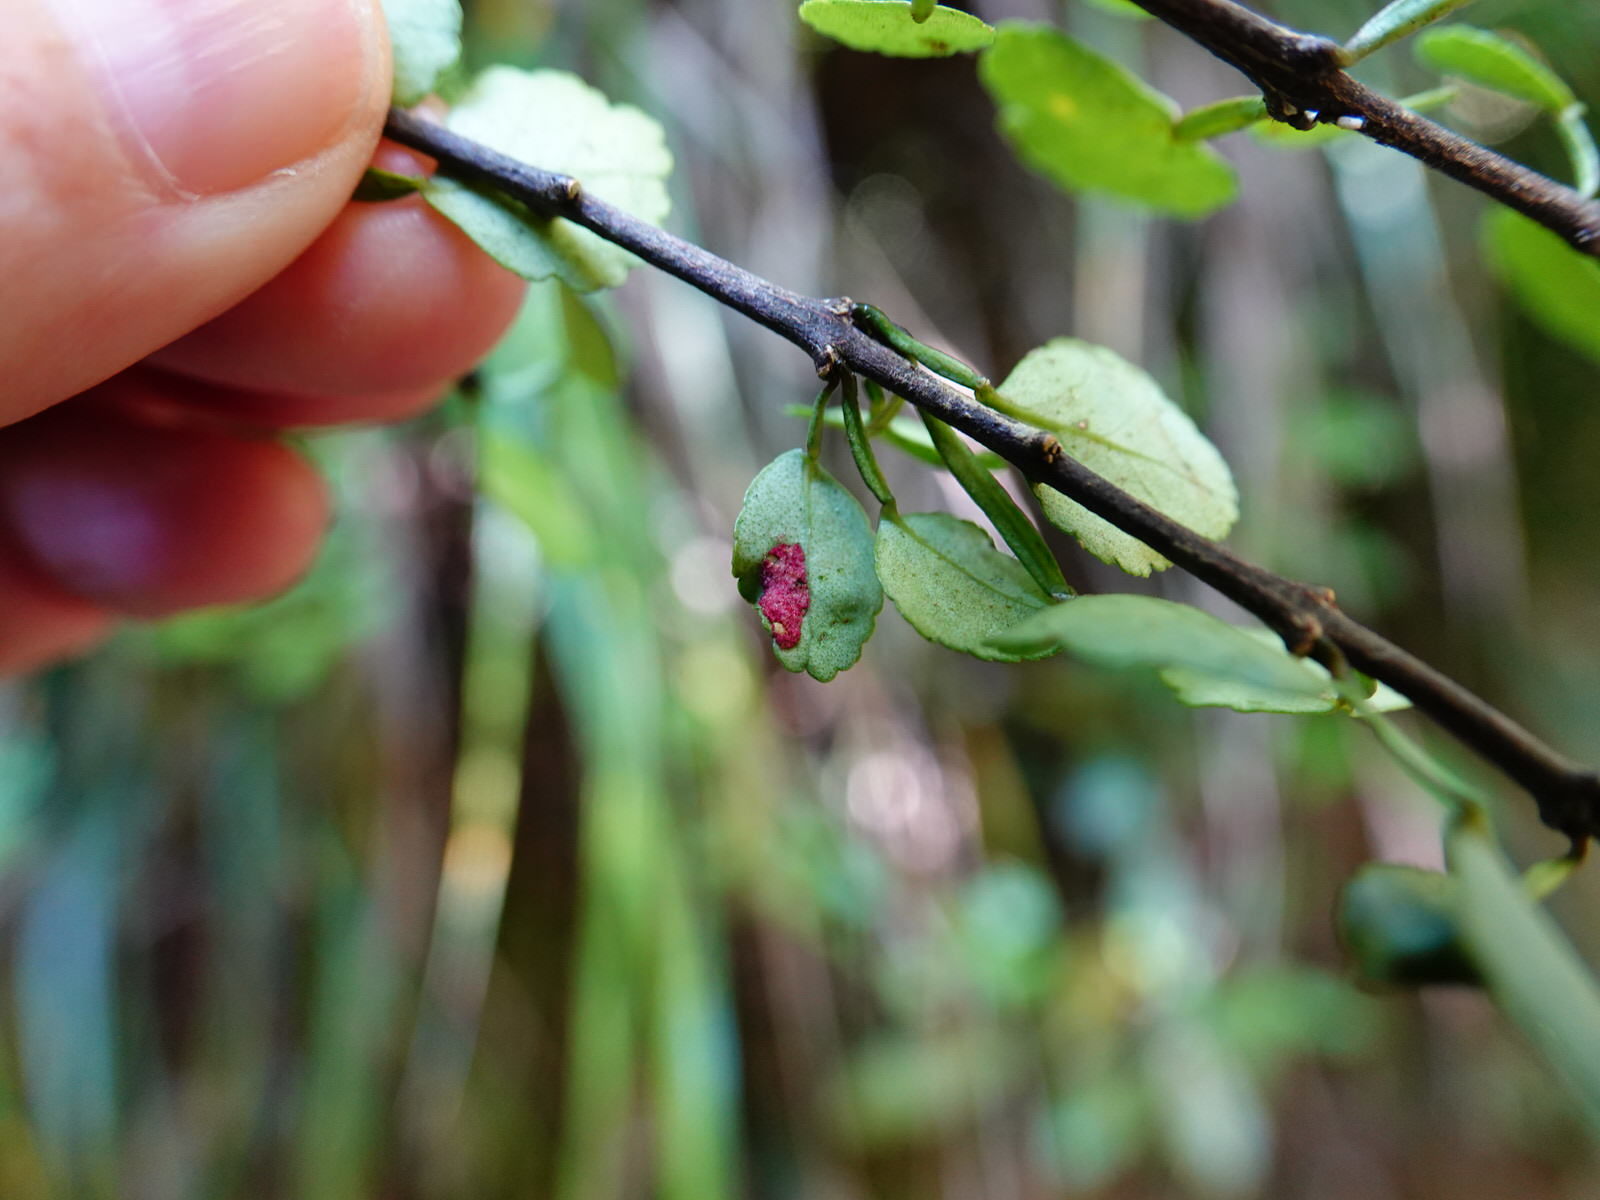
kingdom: Animalia
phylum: Arthropoda
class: Arachnida
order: Trombidiformes
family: Eriophyidae
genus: Colomerus
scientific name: Colomerus coplus
